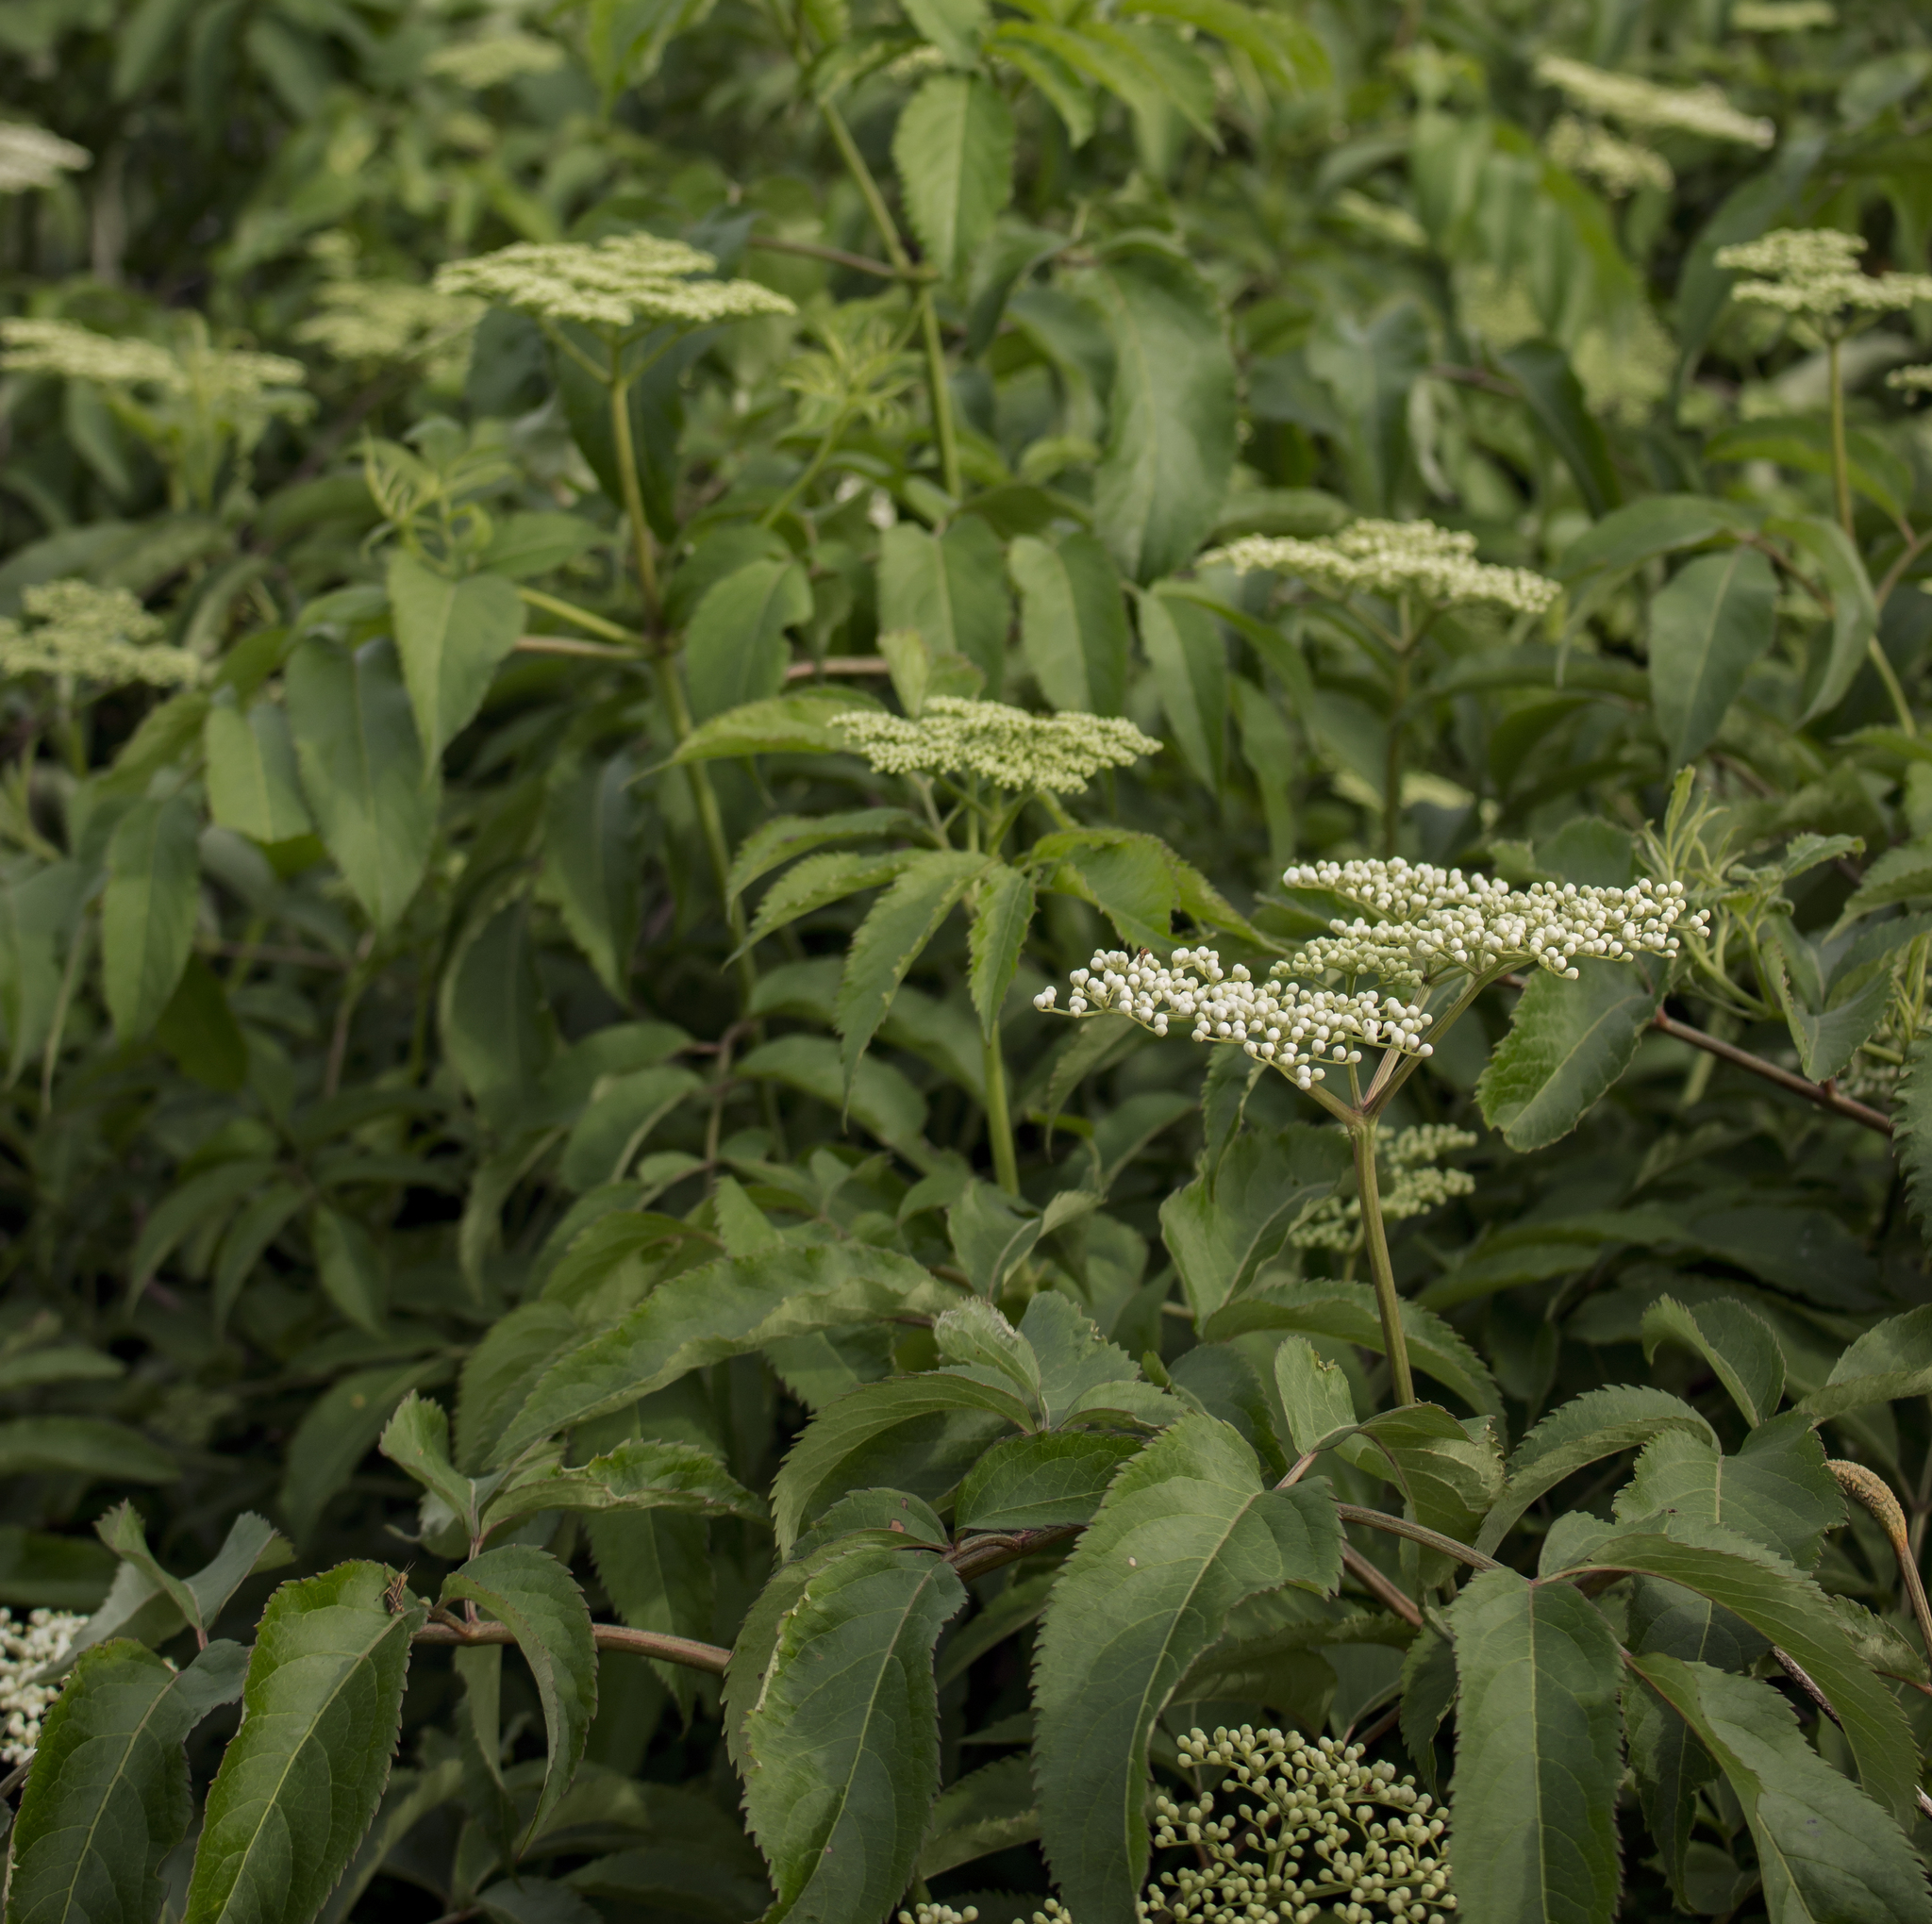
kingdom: Plantae
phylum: Tracheophyta
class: Magnoliopsida
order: Dipsacales
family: Viburnaceae
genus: Sambucus
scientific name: Sambucus canadensis
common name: American elder
